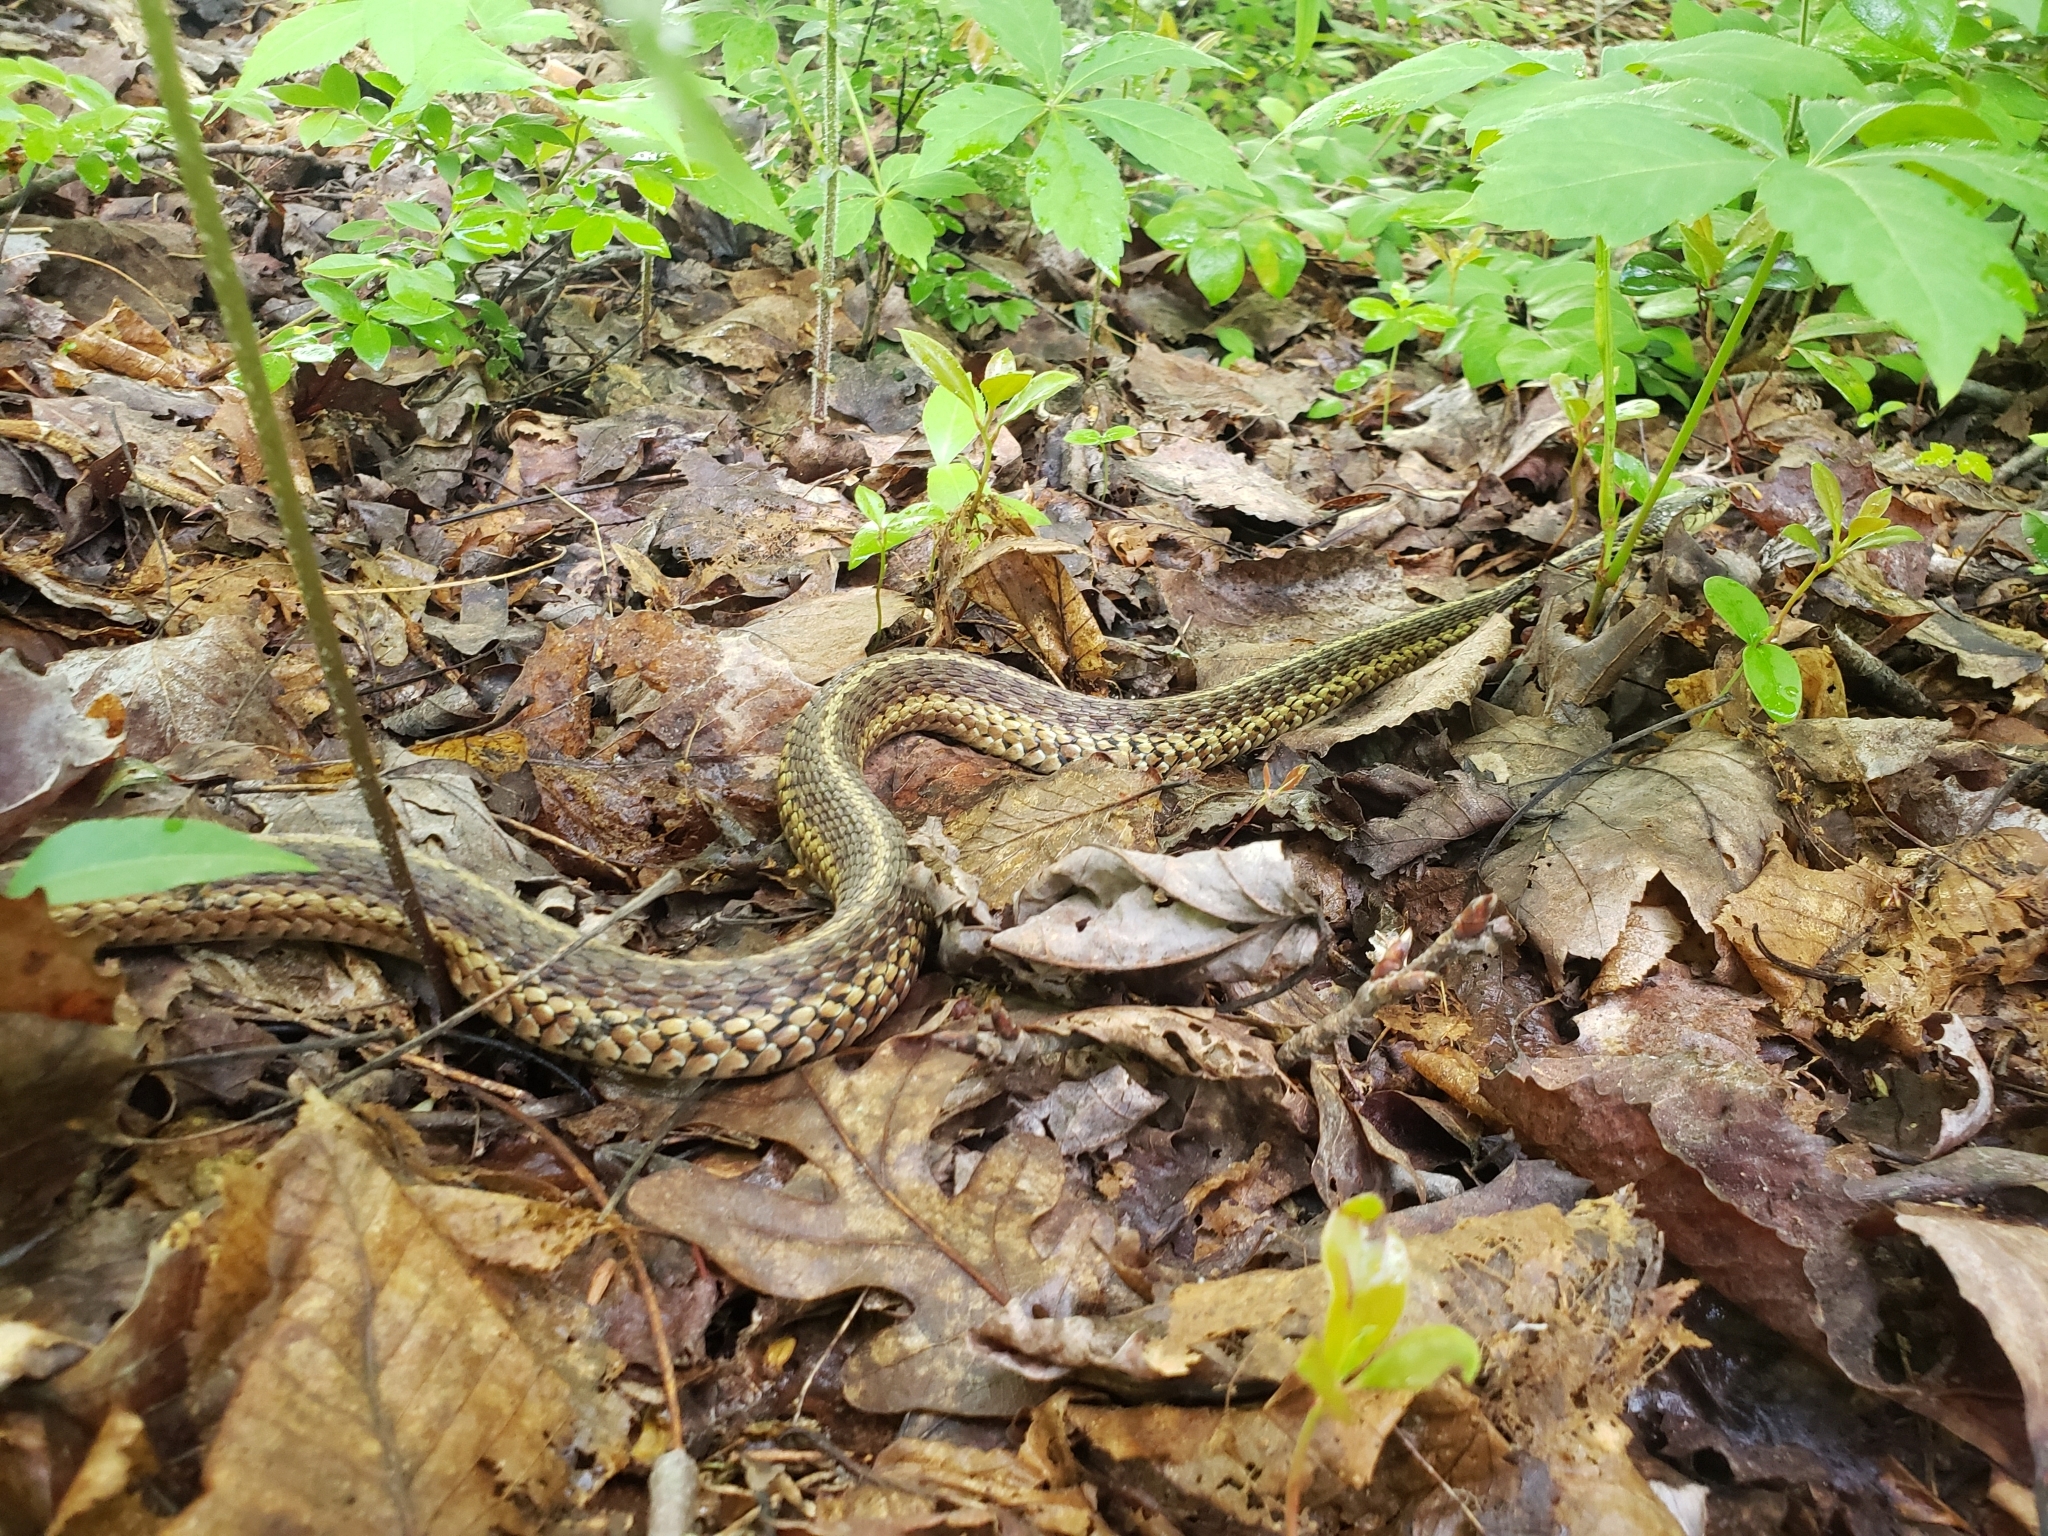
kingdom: Animalia
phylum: Chordata
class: Squamata
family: Colubridae
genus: Thamnophis
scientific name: Thamnophis sirtalis
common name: Common garter snake
